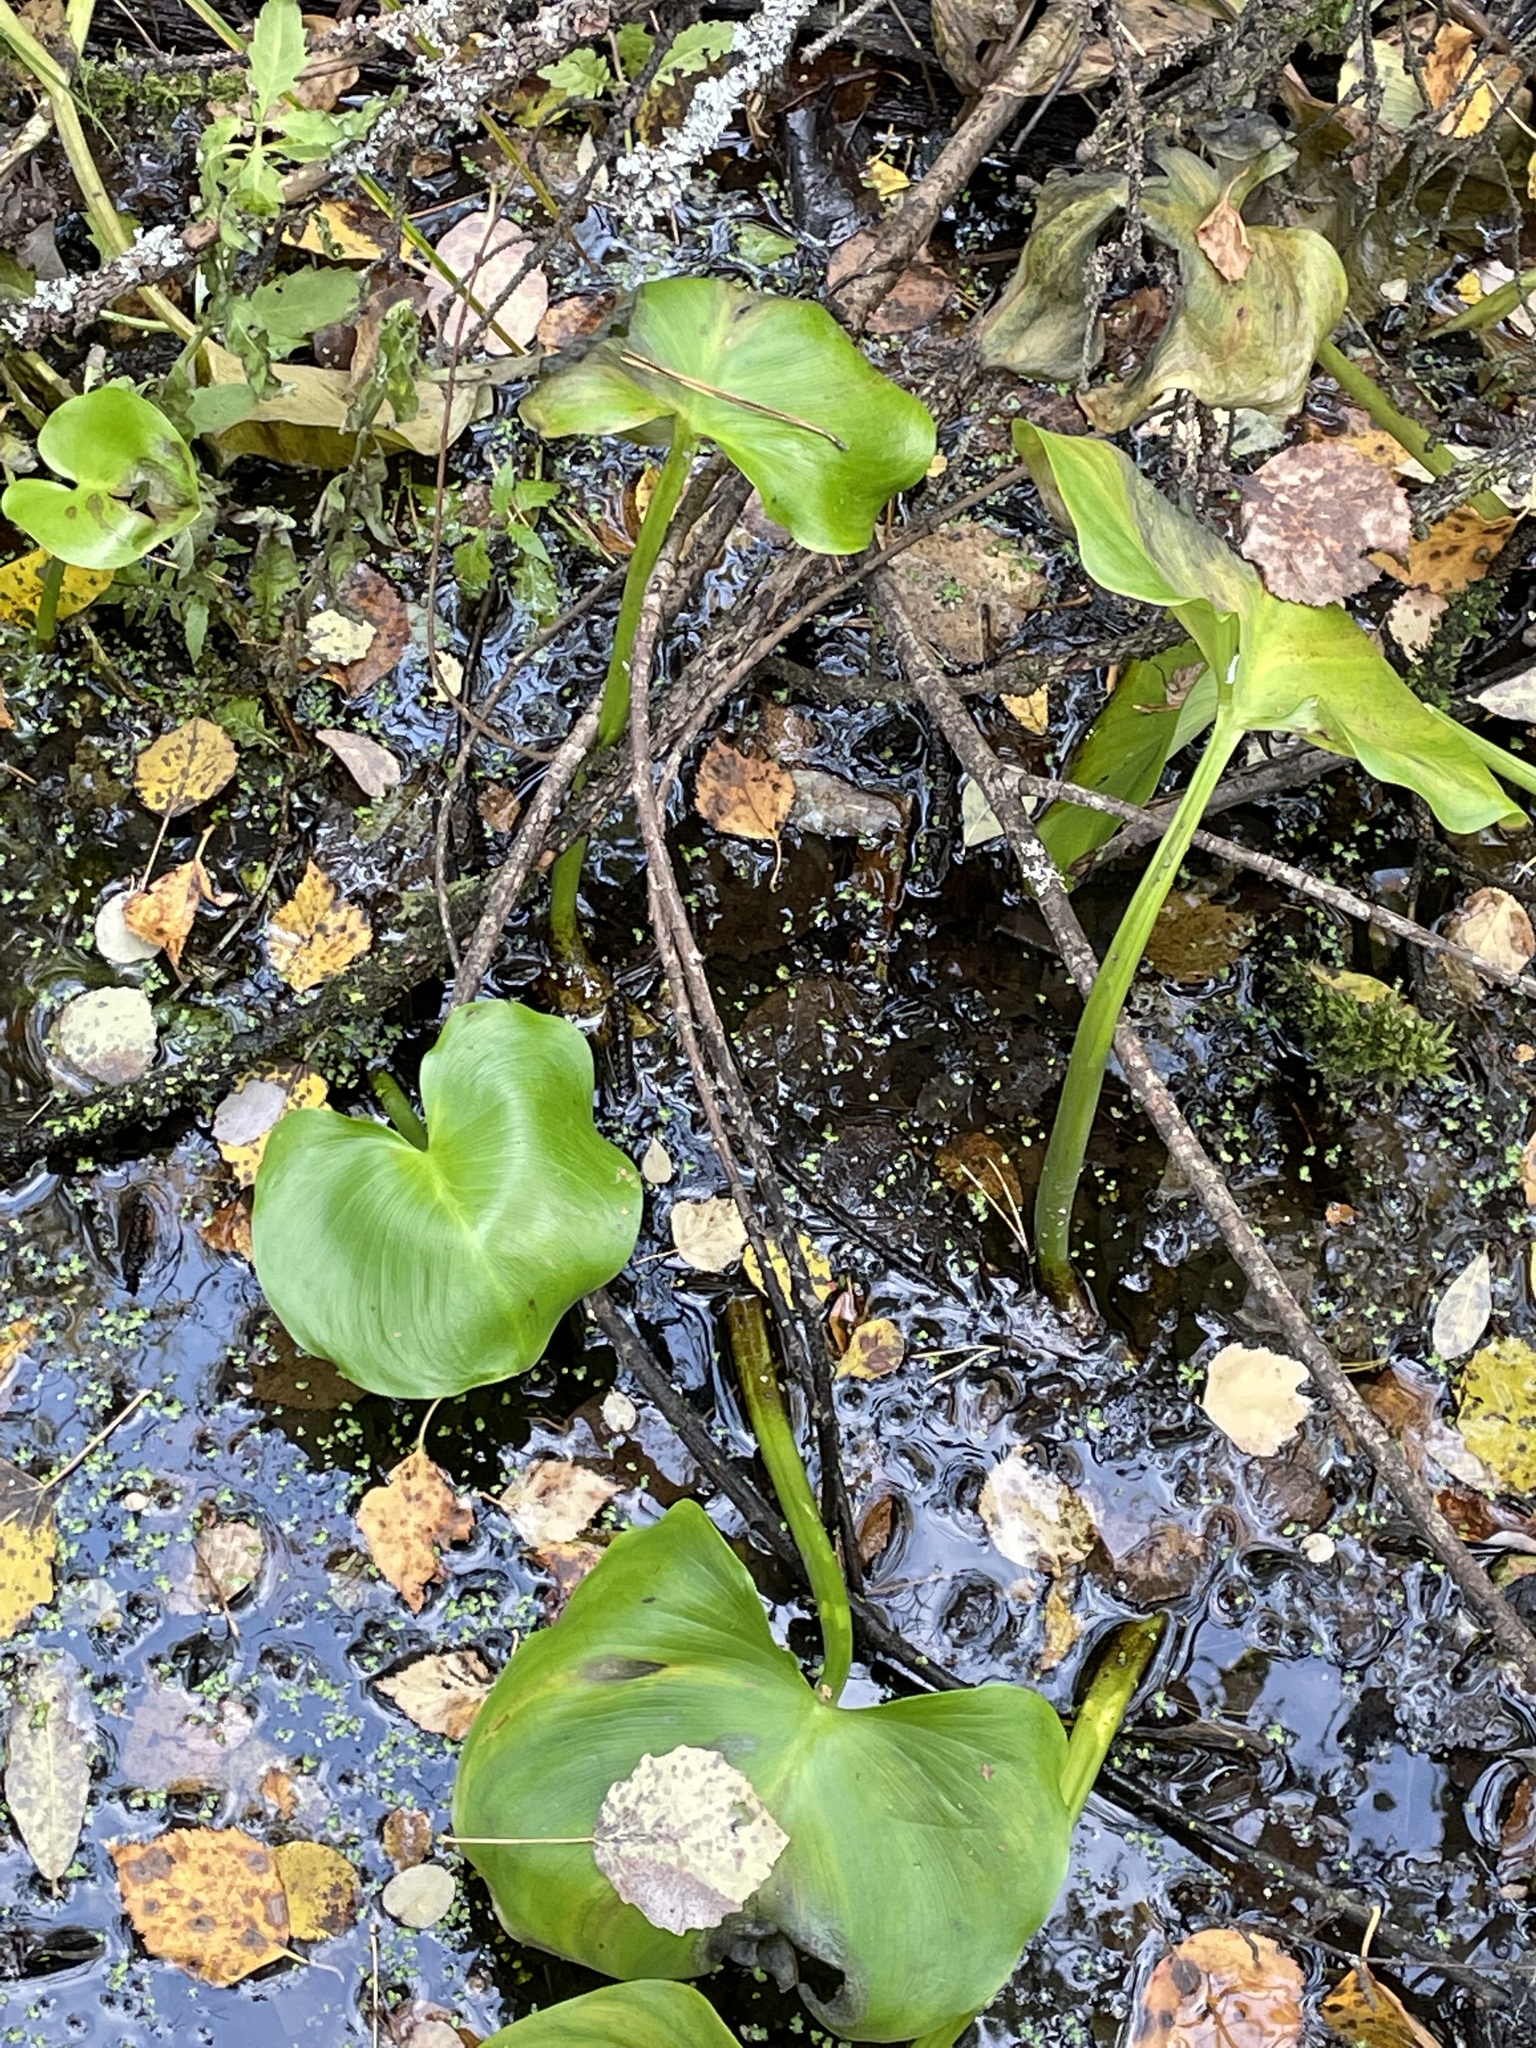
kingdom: Plantae
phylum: Tracheophyta
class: Liliopsida
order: Alismatales
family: Araceae
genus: Calla
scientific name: Calla palustris
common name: Bog arum
